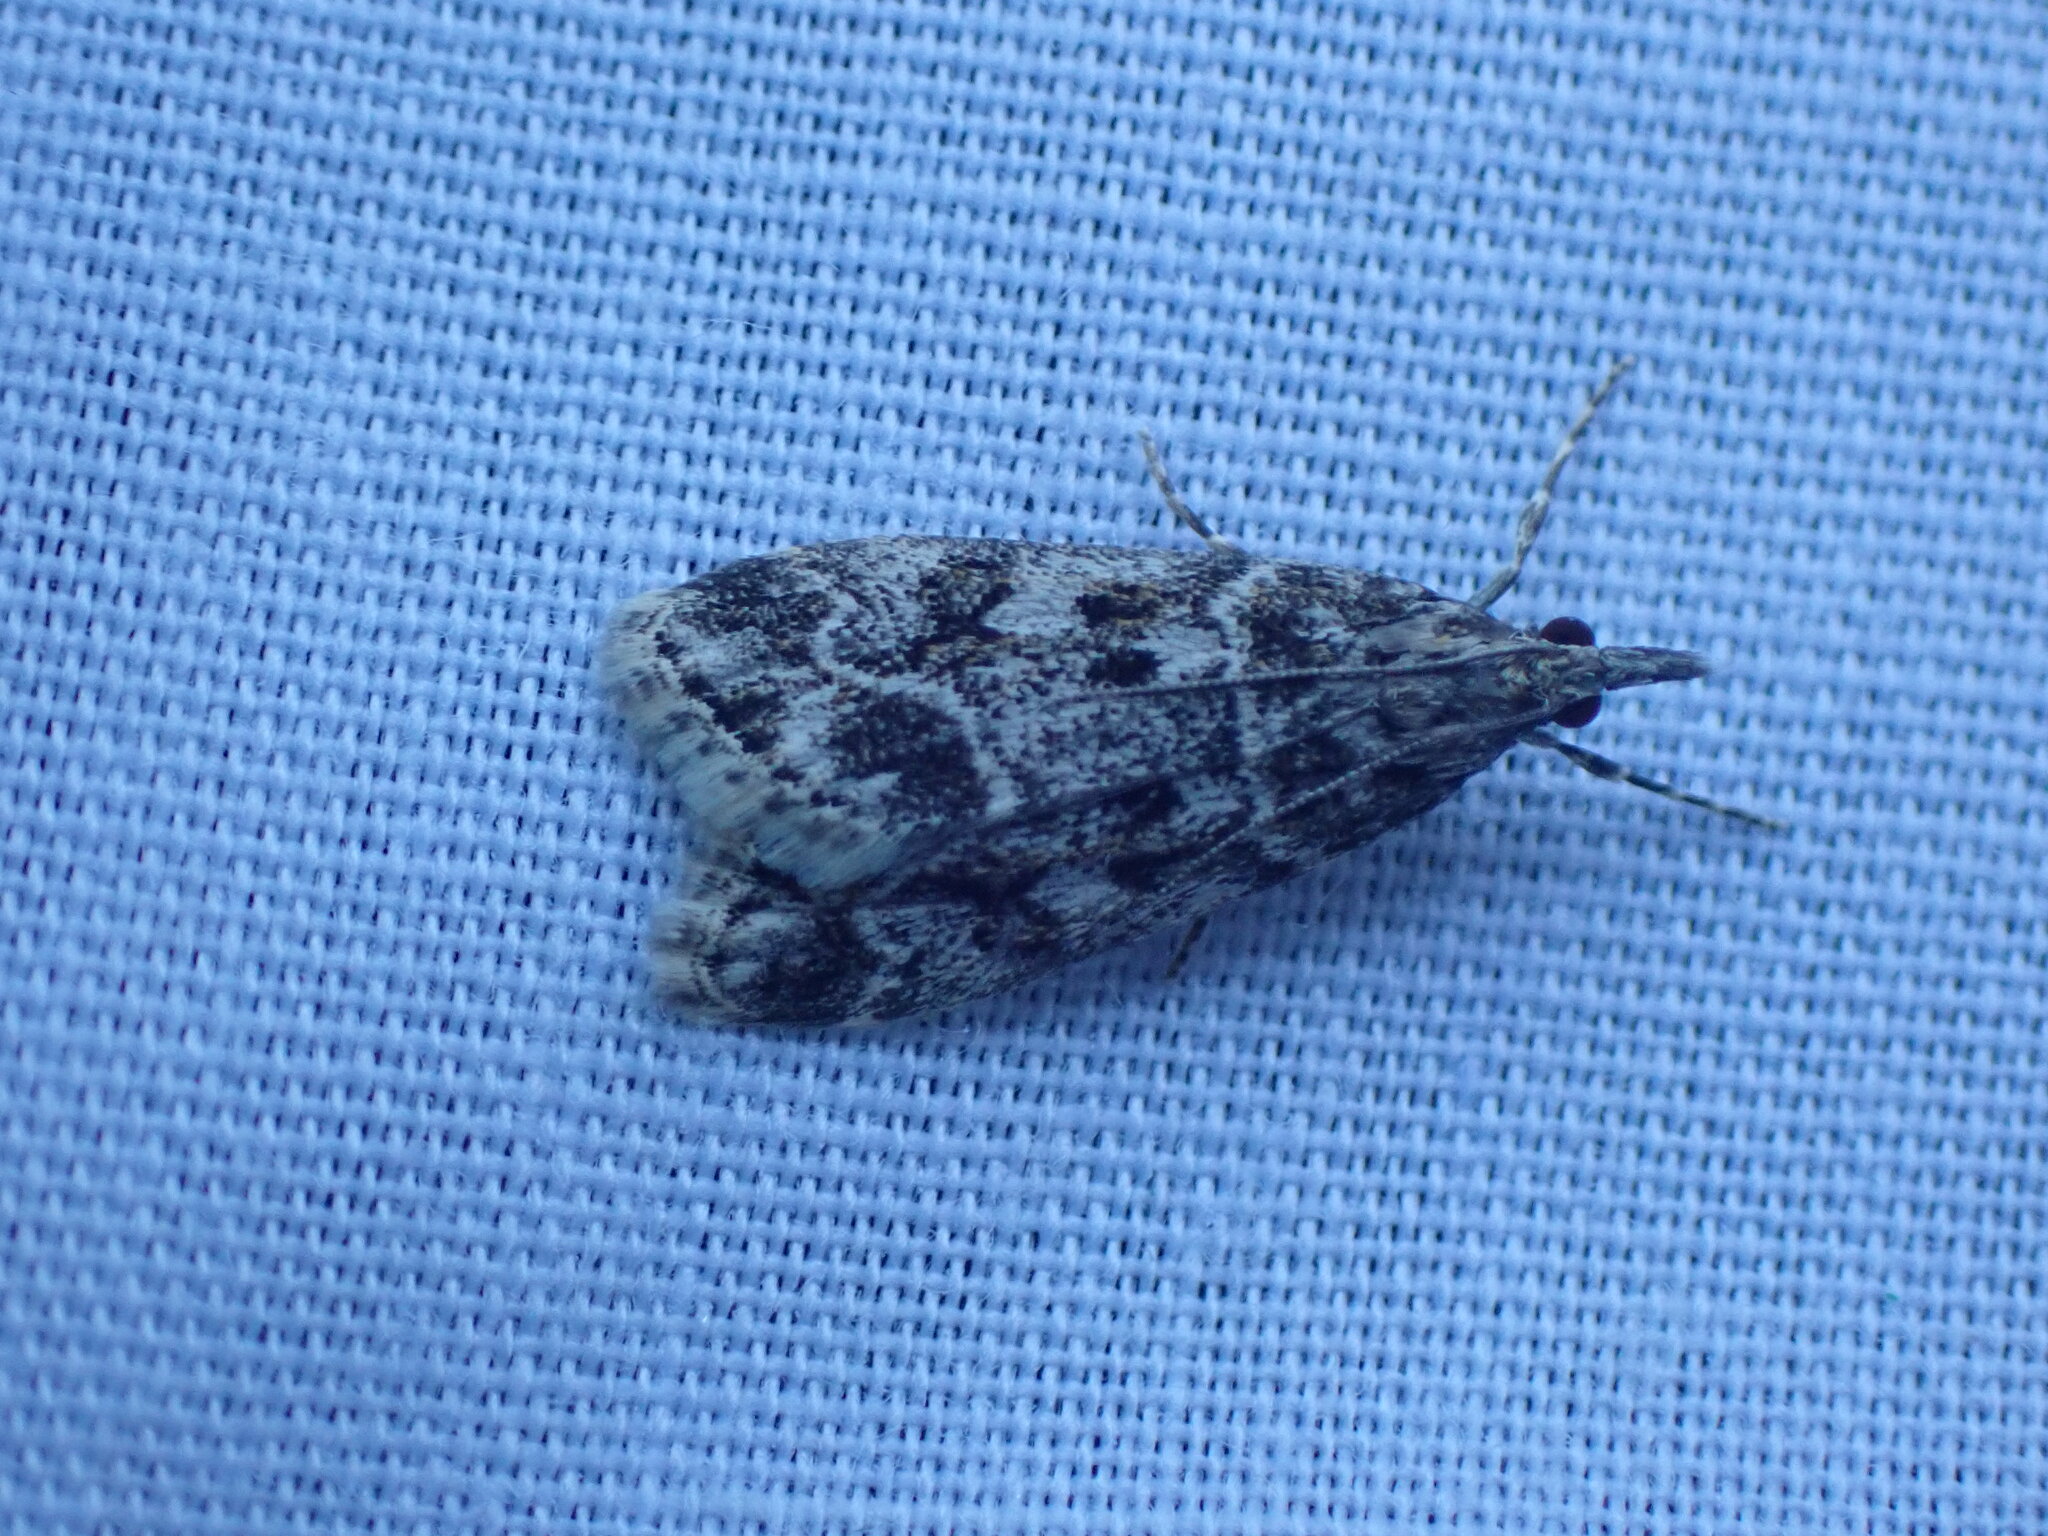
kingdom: Animalia
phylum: Arthropoda
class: Insecta
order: Lepidoptera
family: Crambidae
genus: Eudonia
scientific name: Eudonia echo
